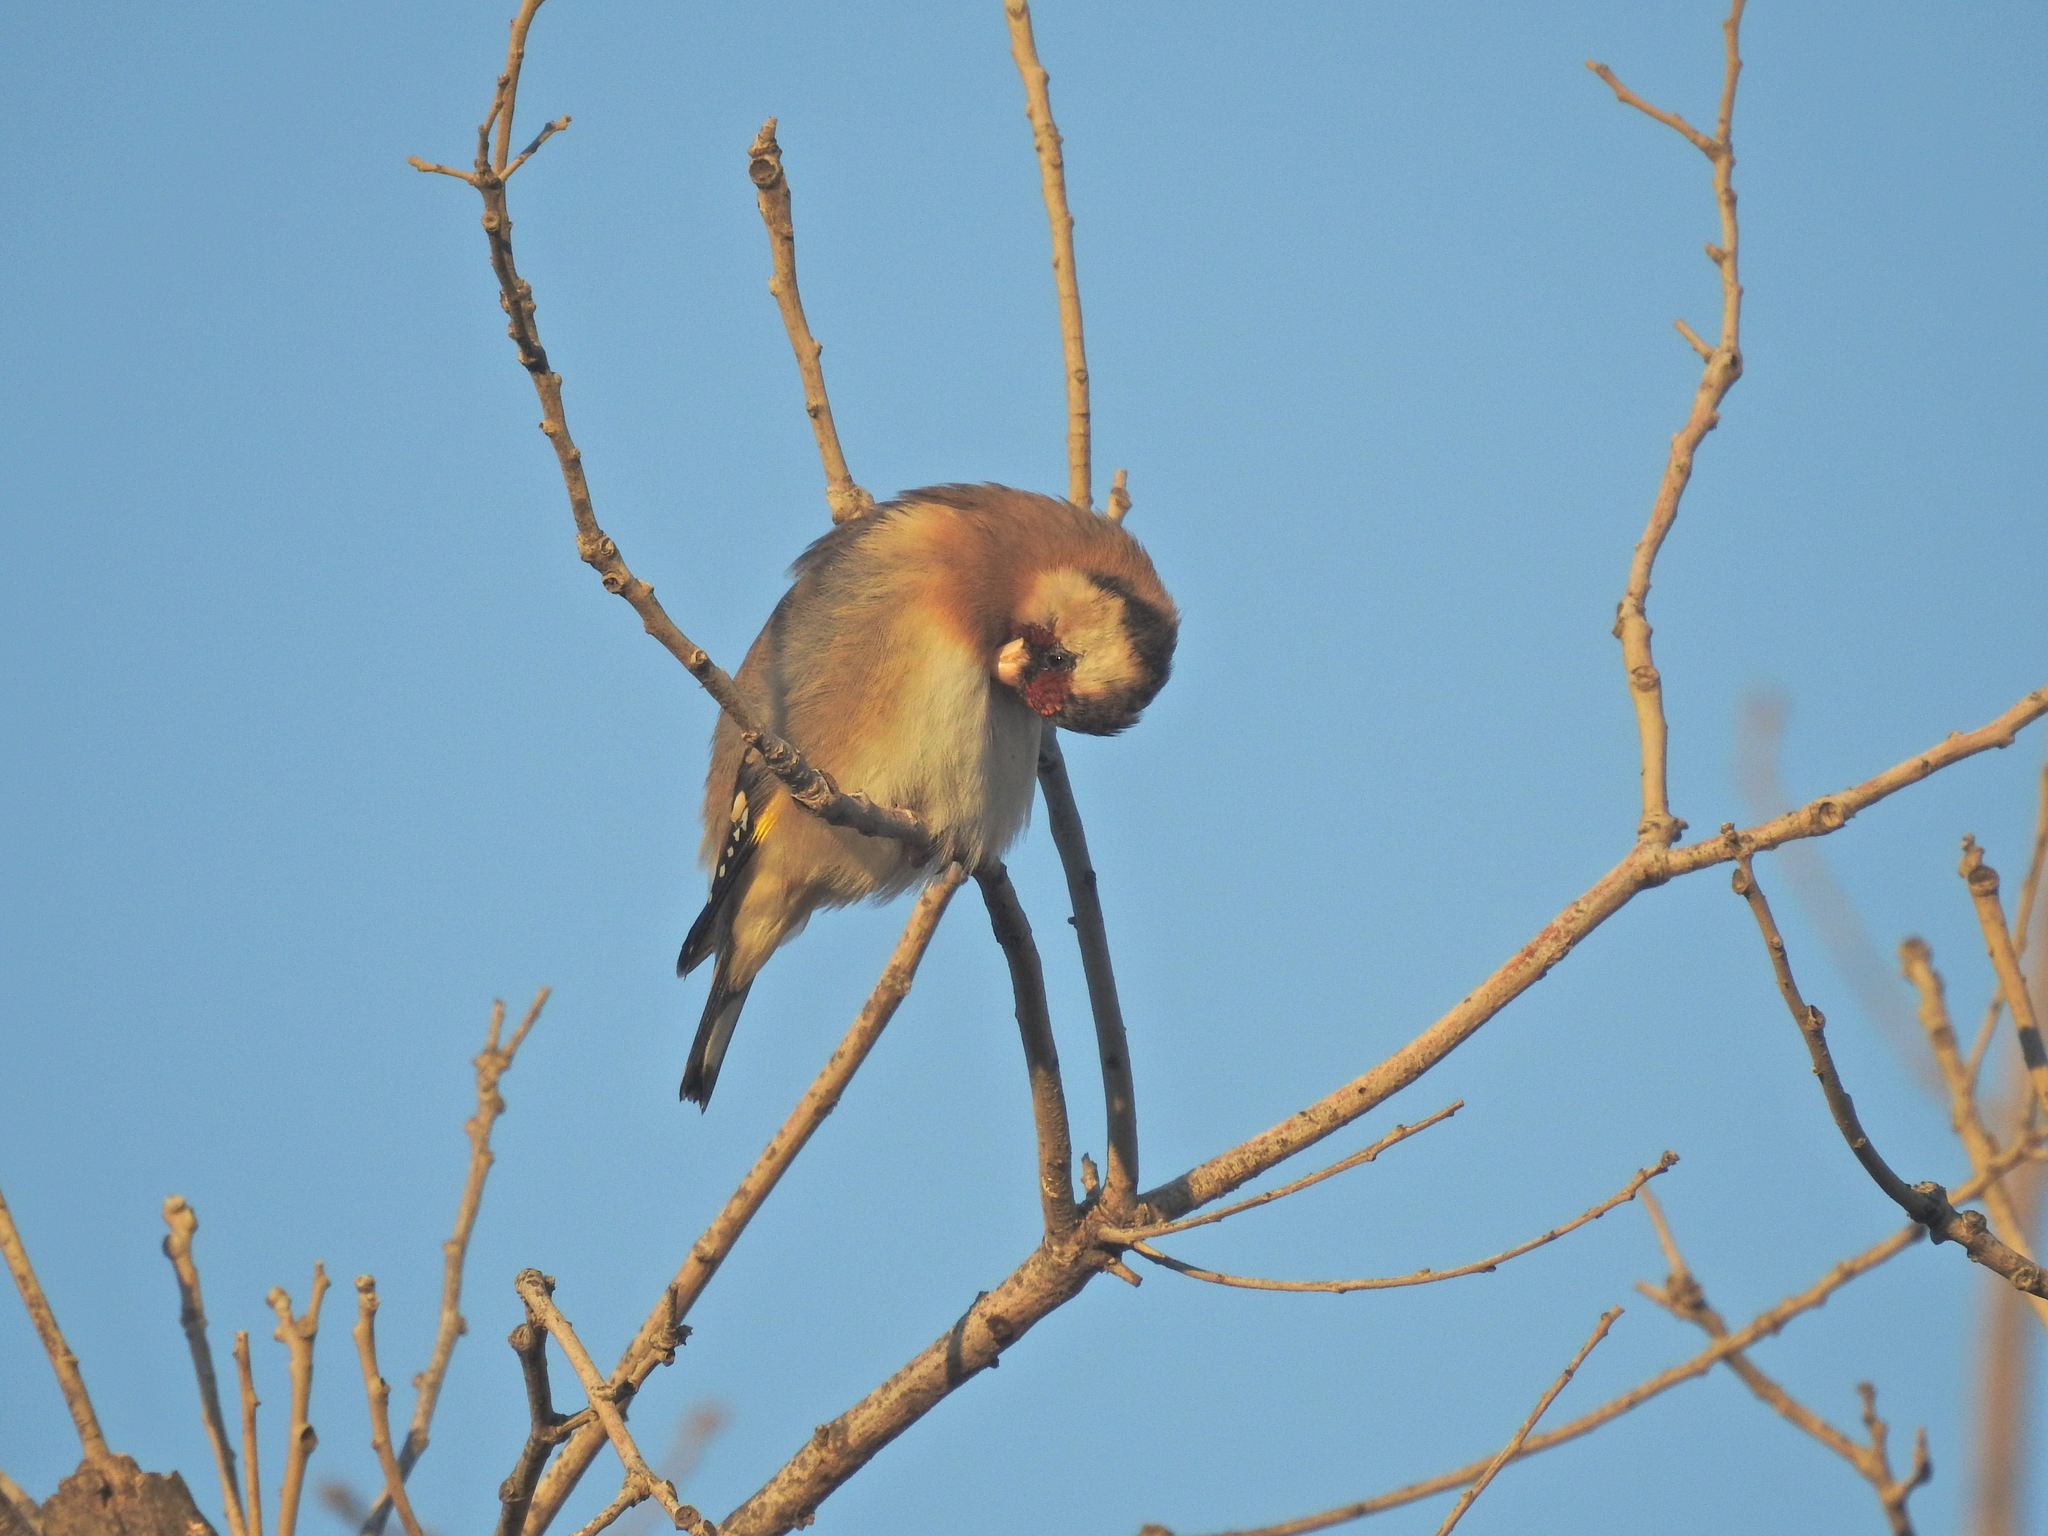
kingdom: Animalia
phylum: Chordata
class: Aves
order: Passeriformes
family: Fringillidae
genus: Carduelis
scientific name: Carduelis carduelis
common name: European goldfinch
